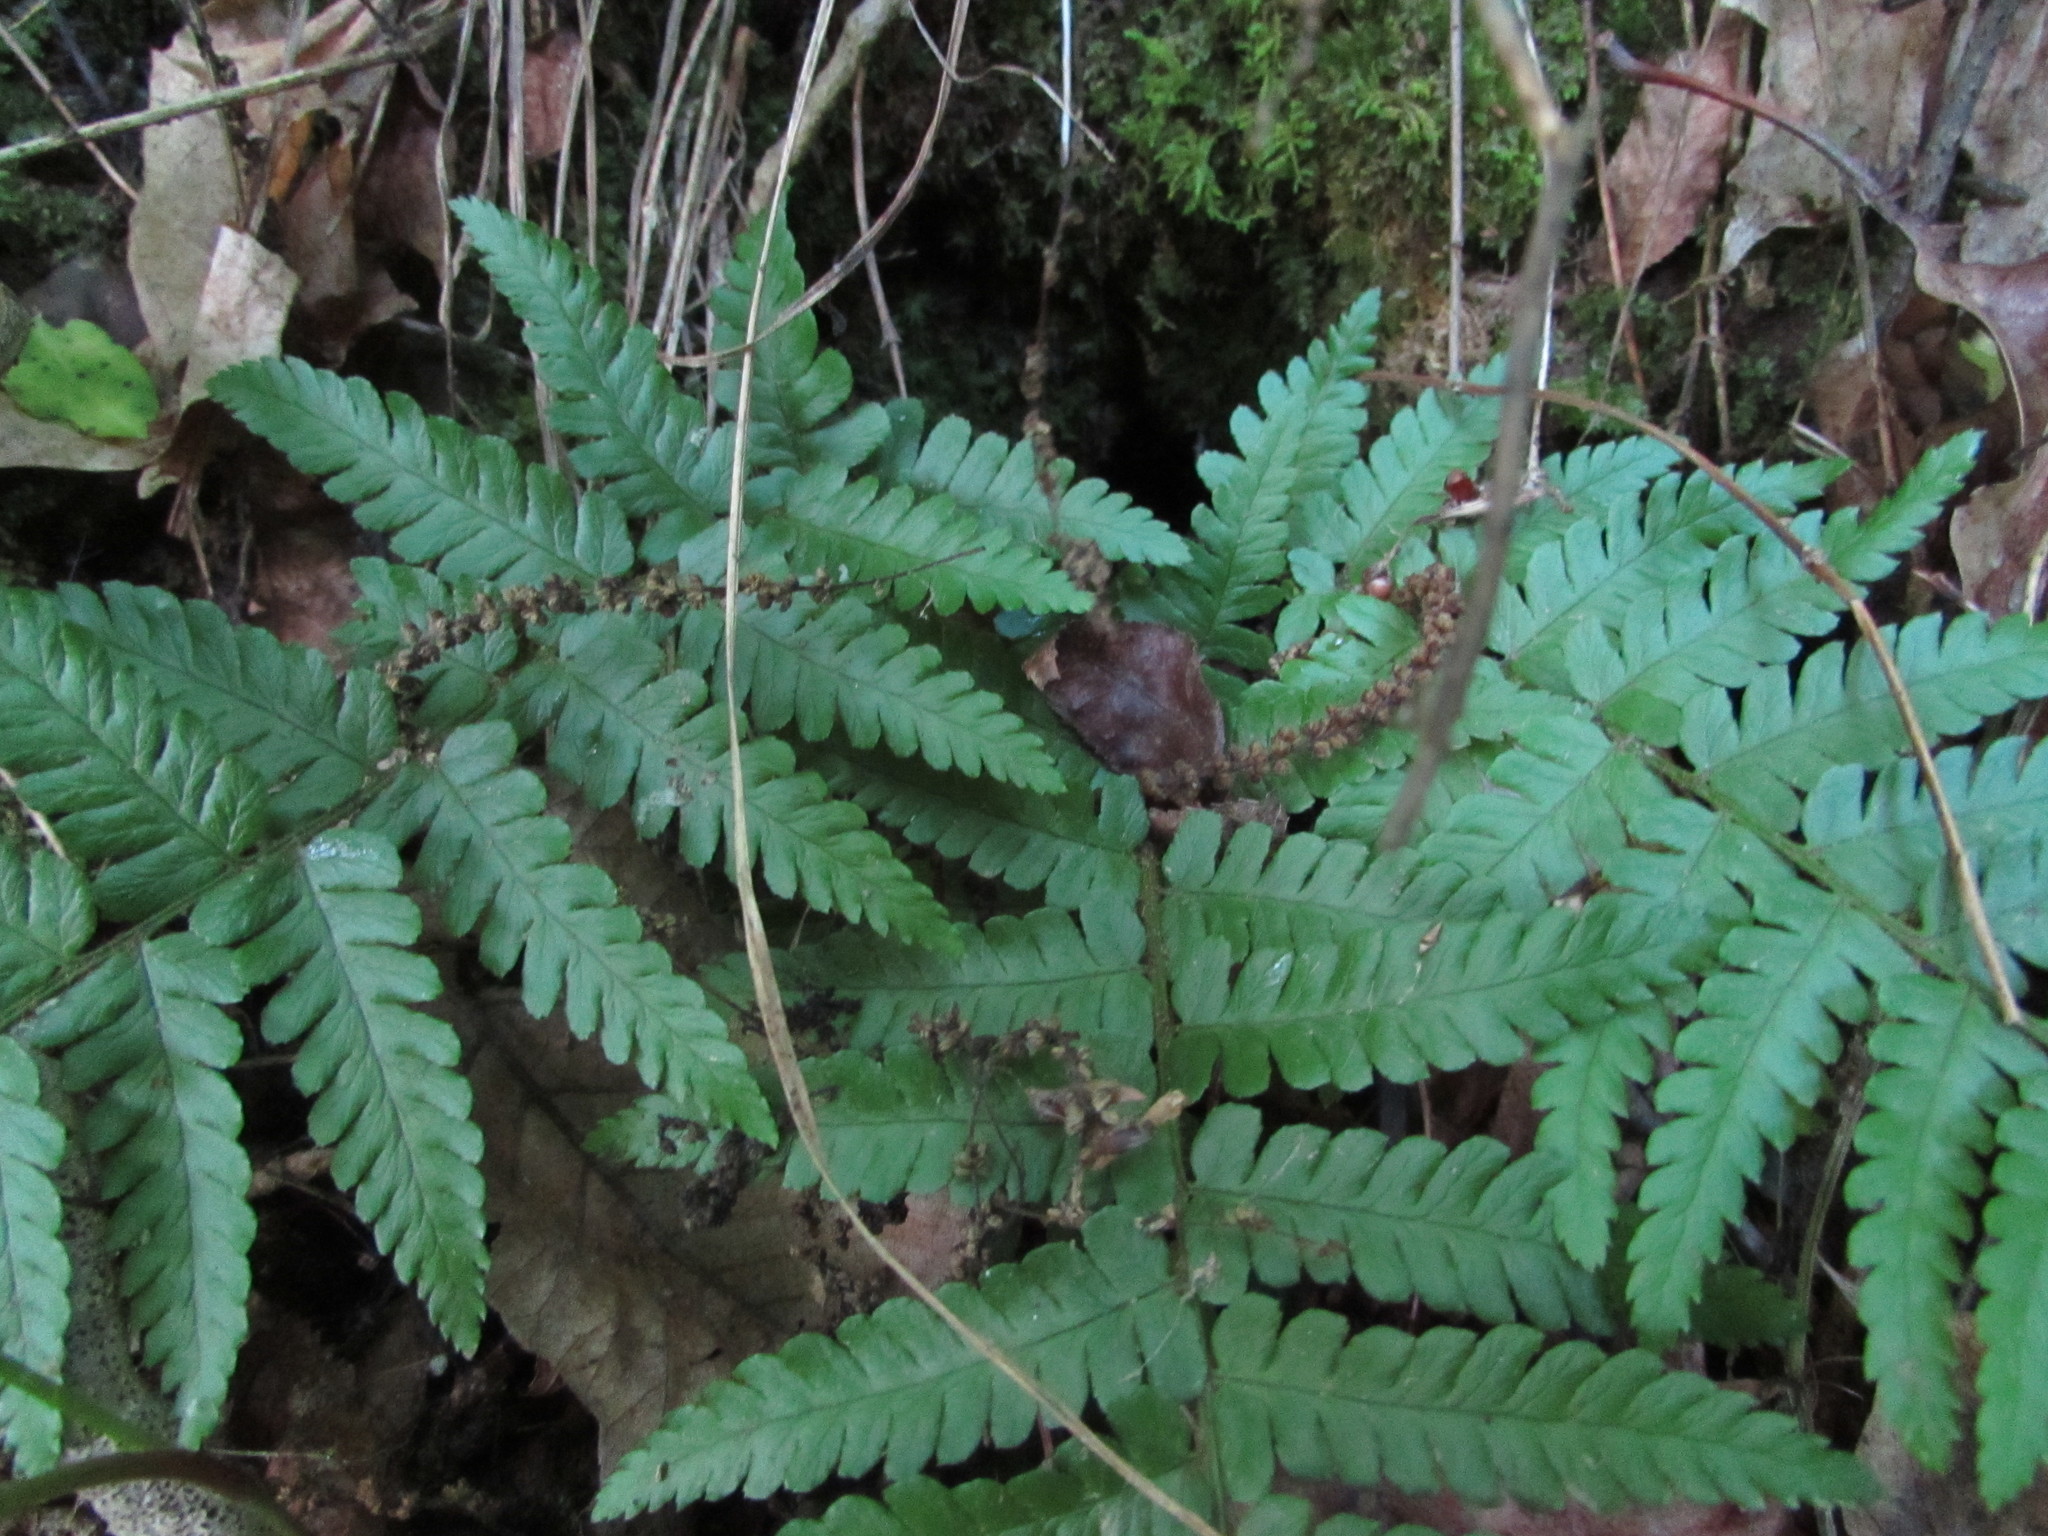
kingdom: Plantae
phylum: Tracheophyta
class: Polypodiopsida
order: Polypodiales
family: Dryopteridaceae
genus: Dryopteris
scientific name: Dryopteris clintoniana
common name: Clinton's wood fern
